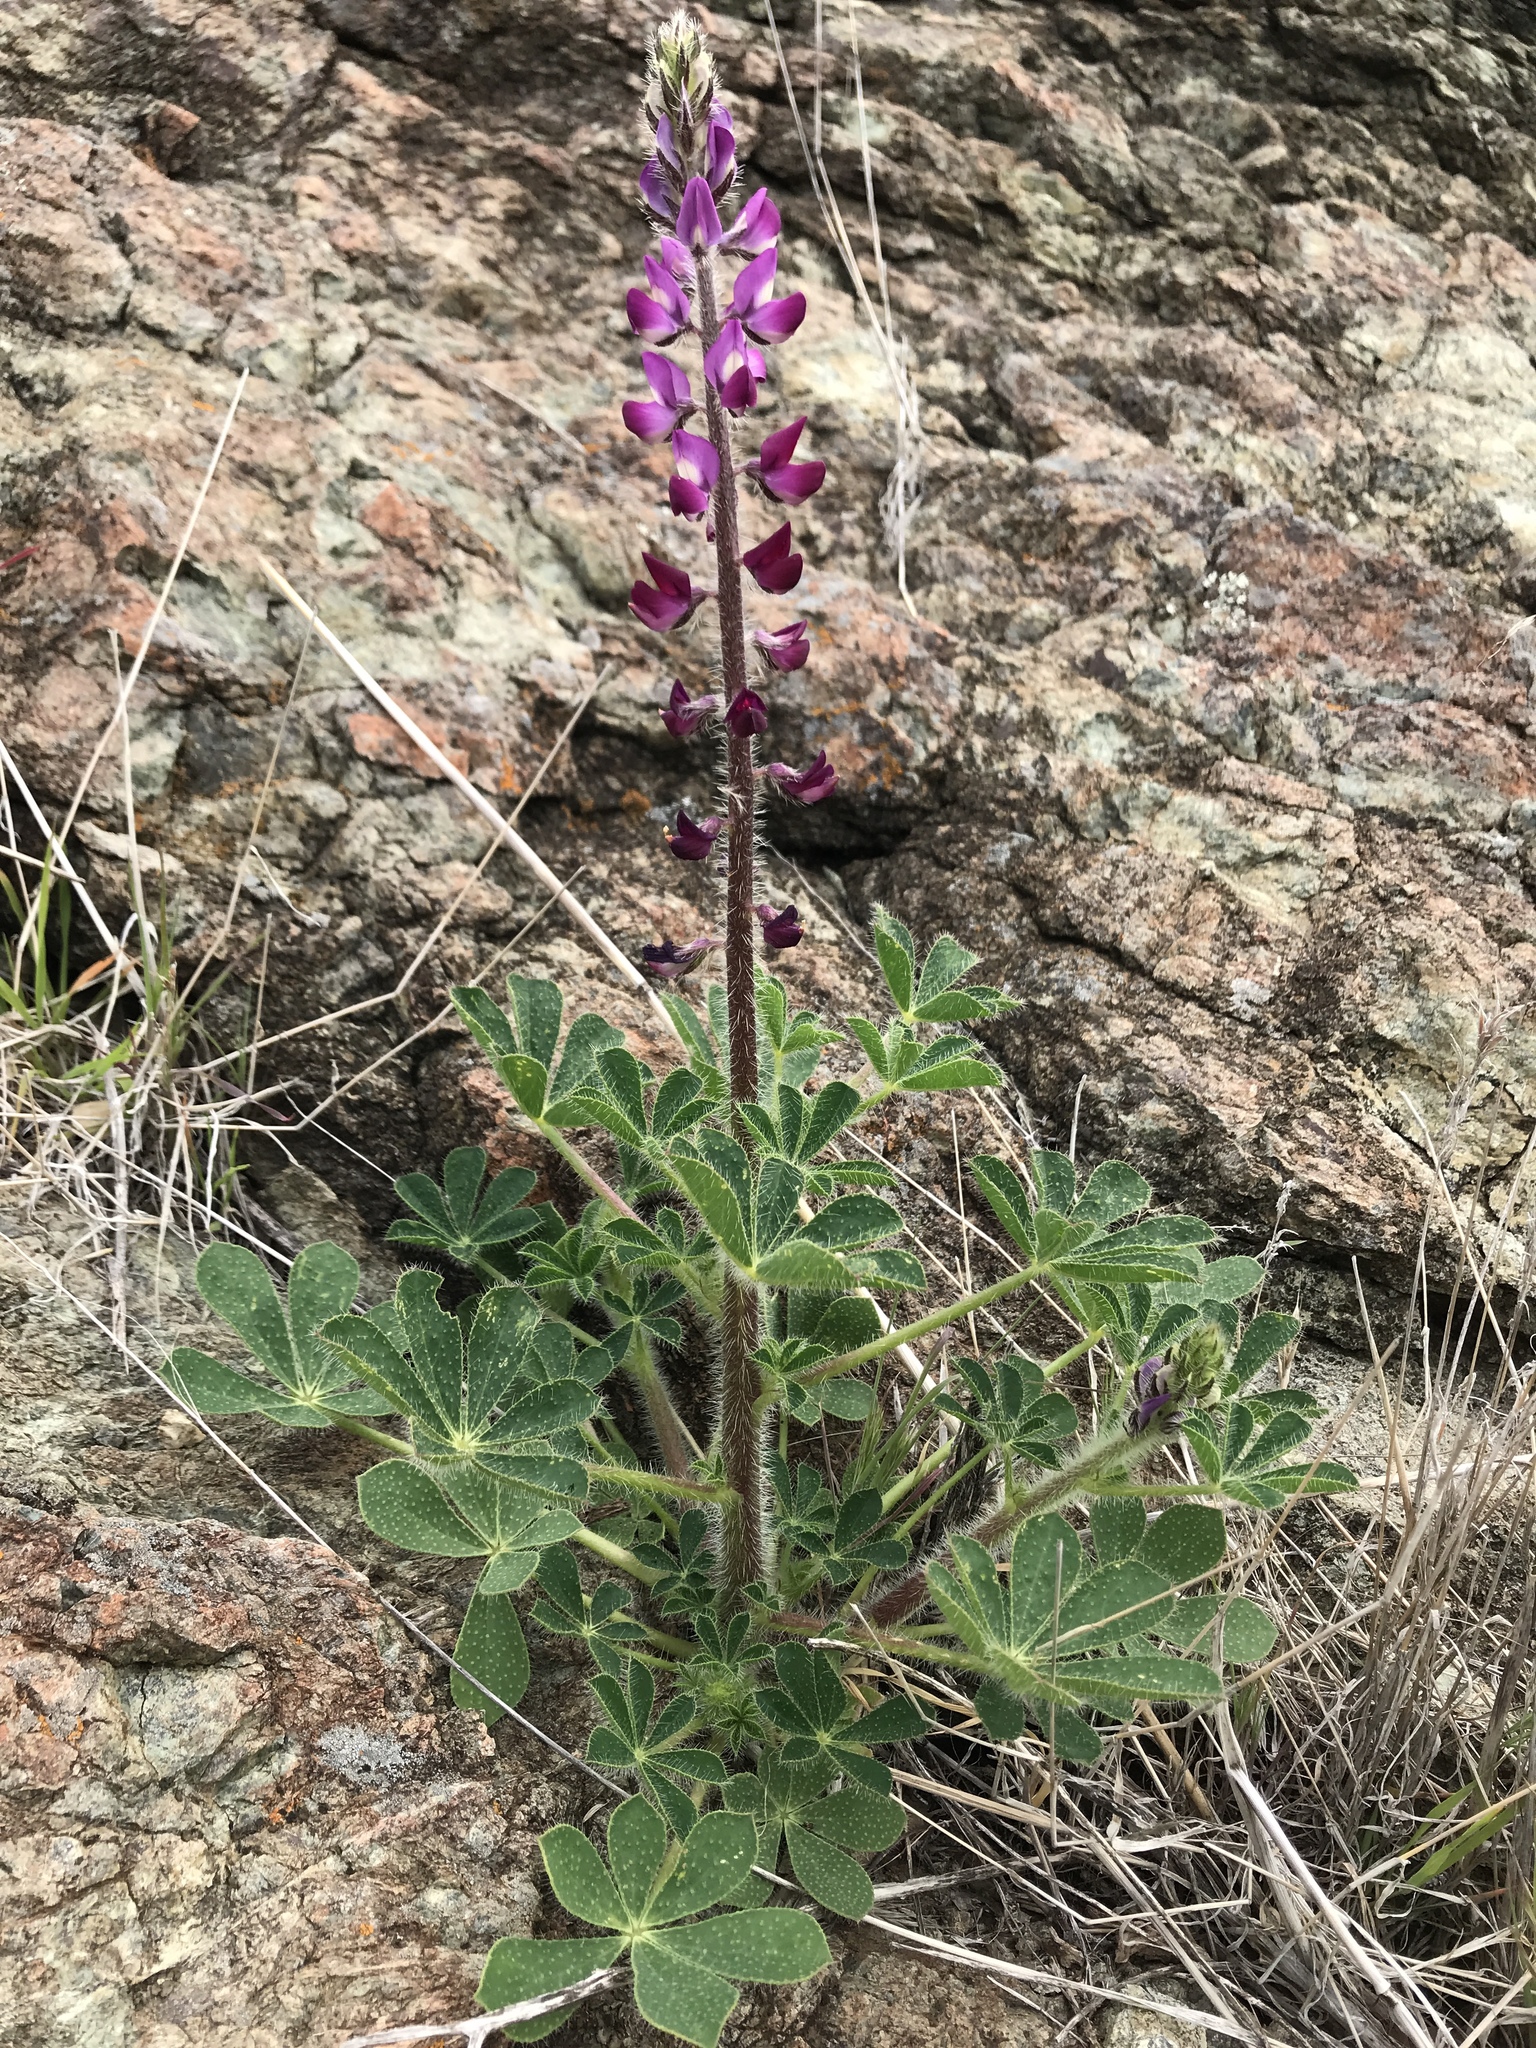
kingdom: Plantae
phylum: Tracheophyta
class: Magnoliopsida
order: Fabales
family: Fabaceae
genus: Lupinus
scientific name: Lupinus hirsutissimus
